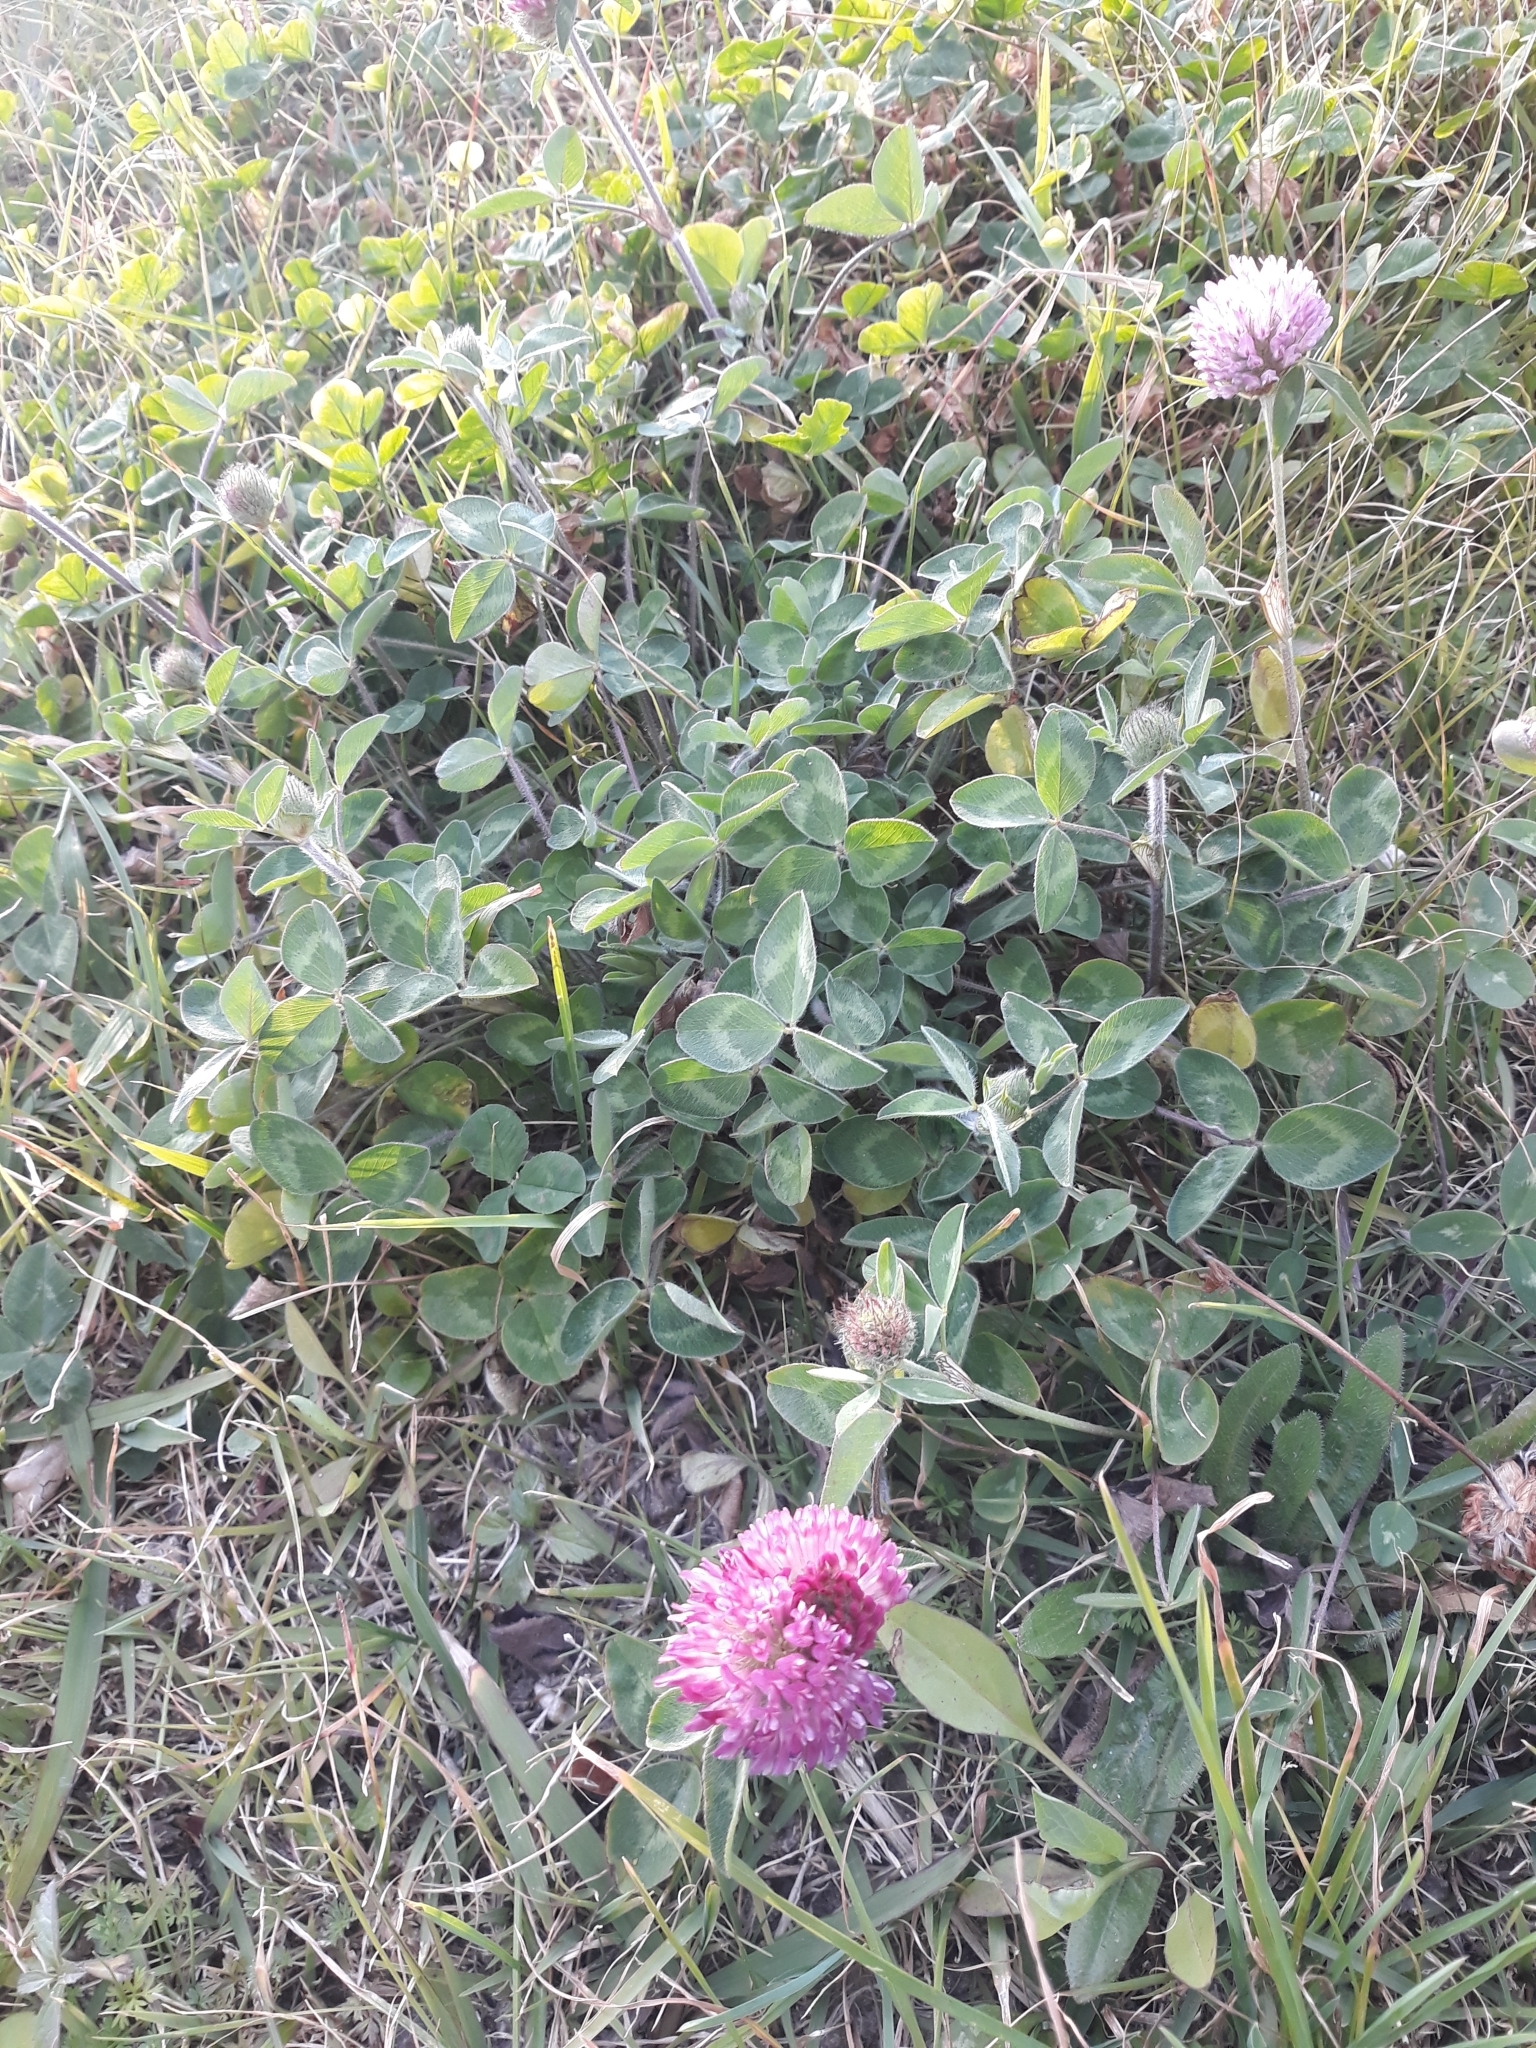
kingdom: Plantae
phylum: Tracheophyta
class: Magnoliopsida
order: Fabales
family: Fabaceae
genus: Trifolium
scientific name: Trifolium pratense
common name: Red clover
